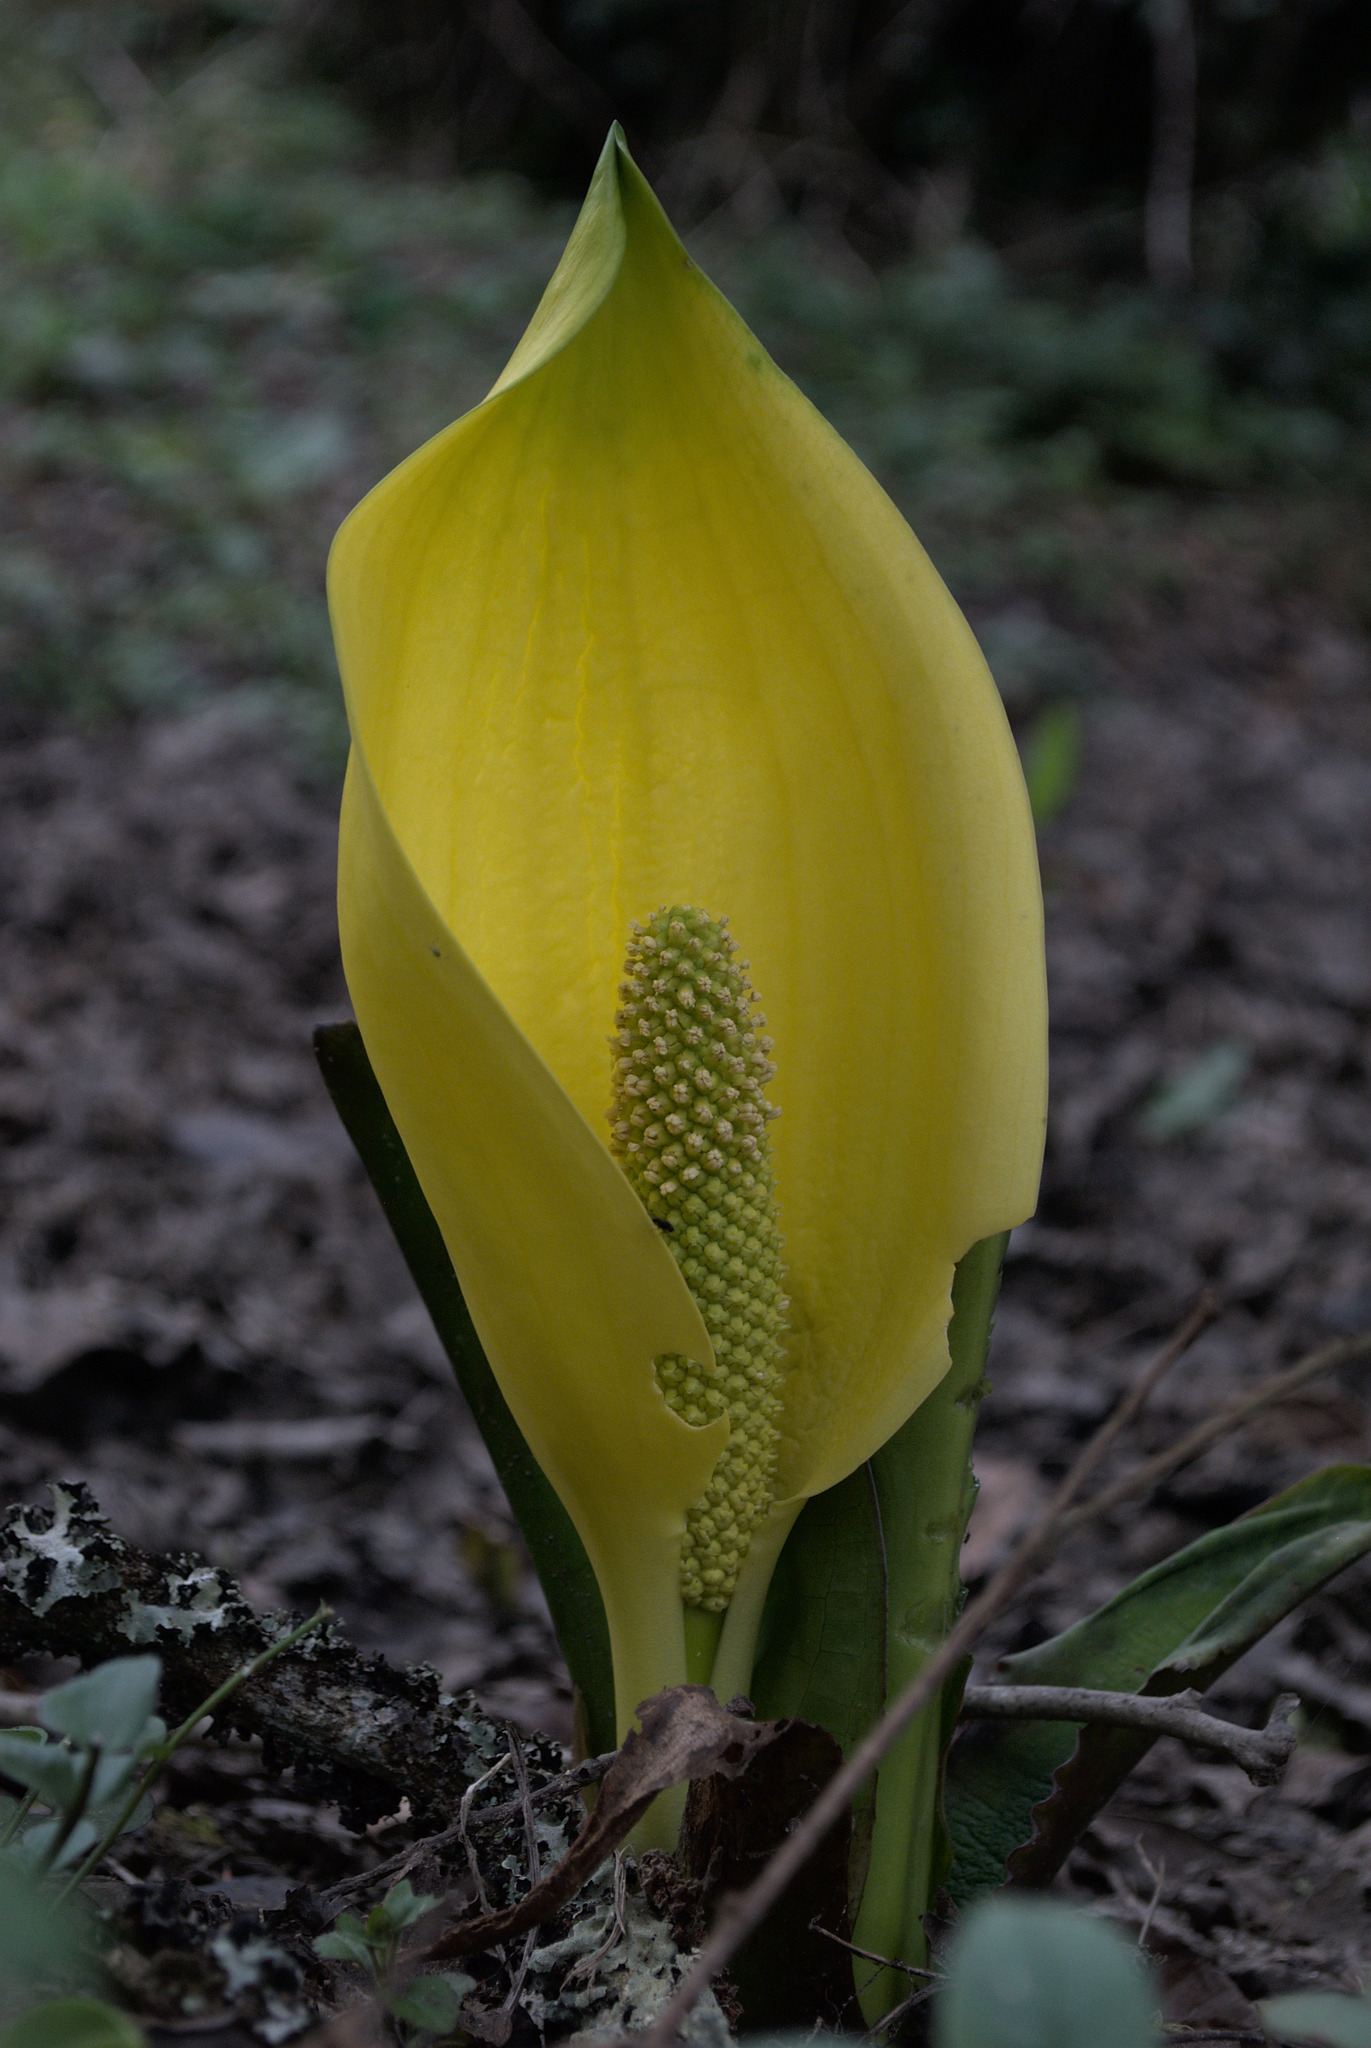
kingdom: Plantae
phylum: Tracheophyta
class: Liliopsida
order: Alismatales
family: Araceae
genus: Lysichiton
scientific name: Lysichiton americanus
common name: American skunk cabbage
